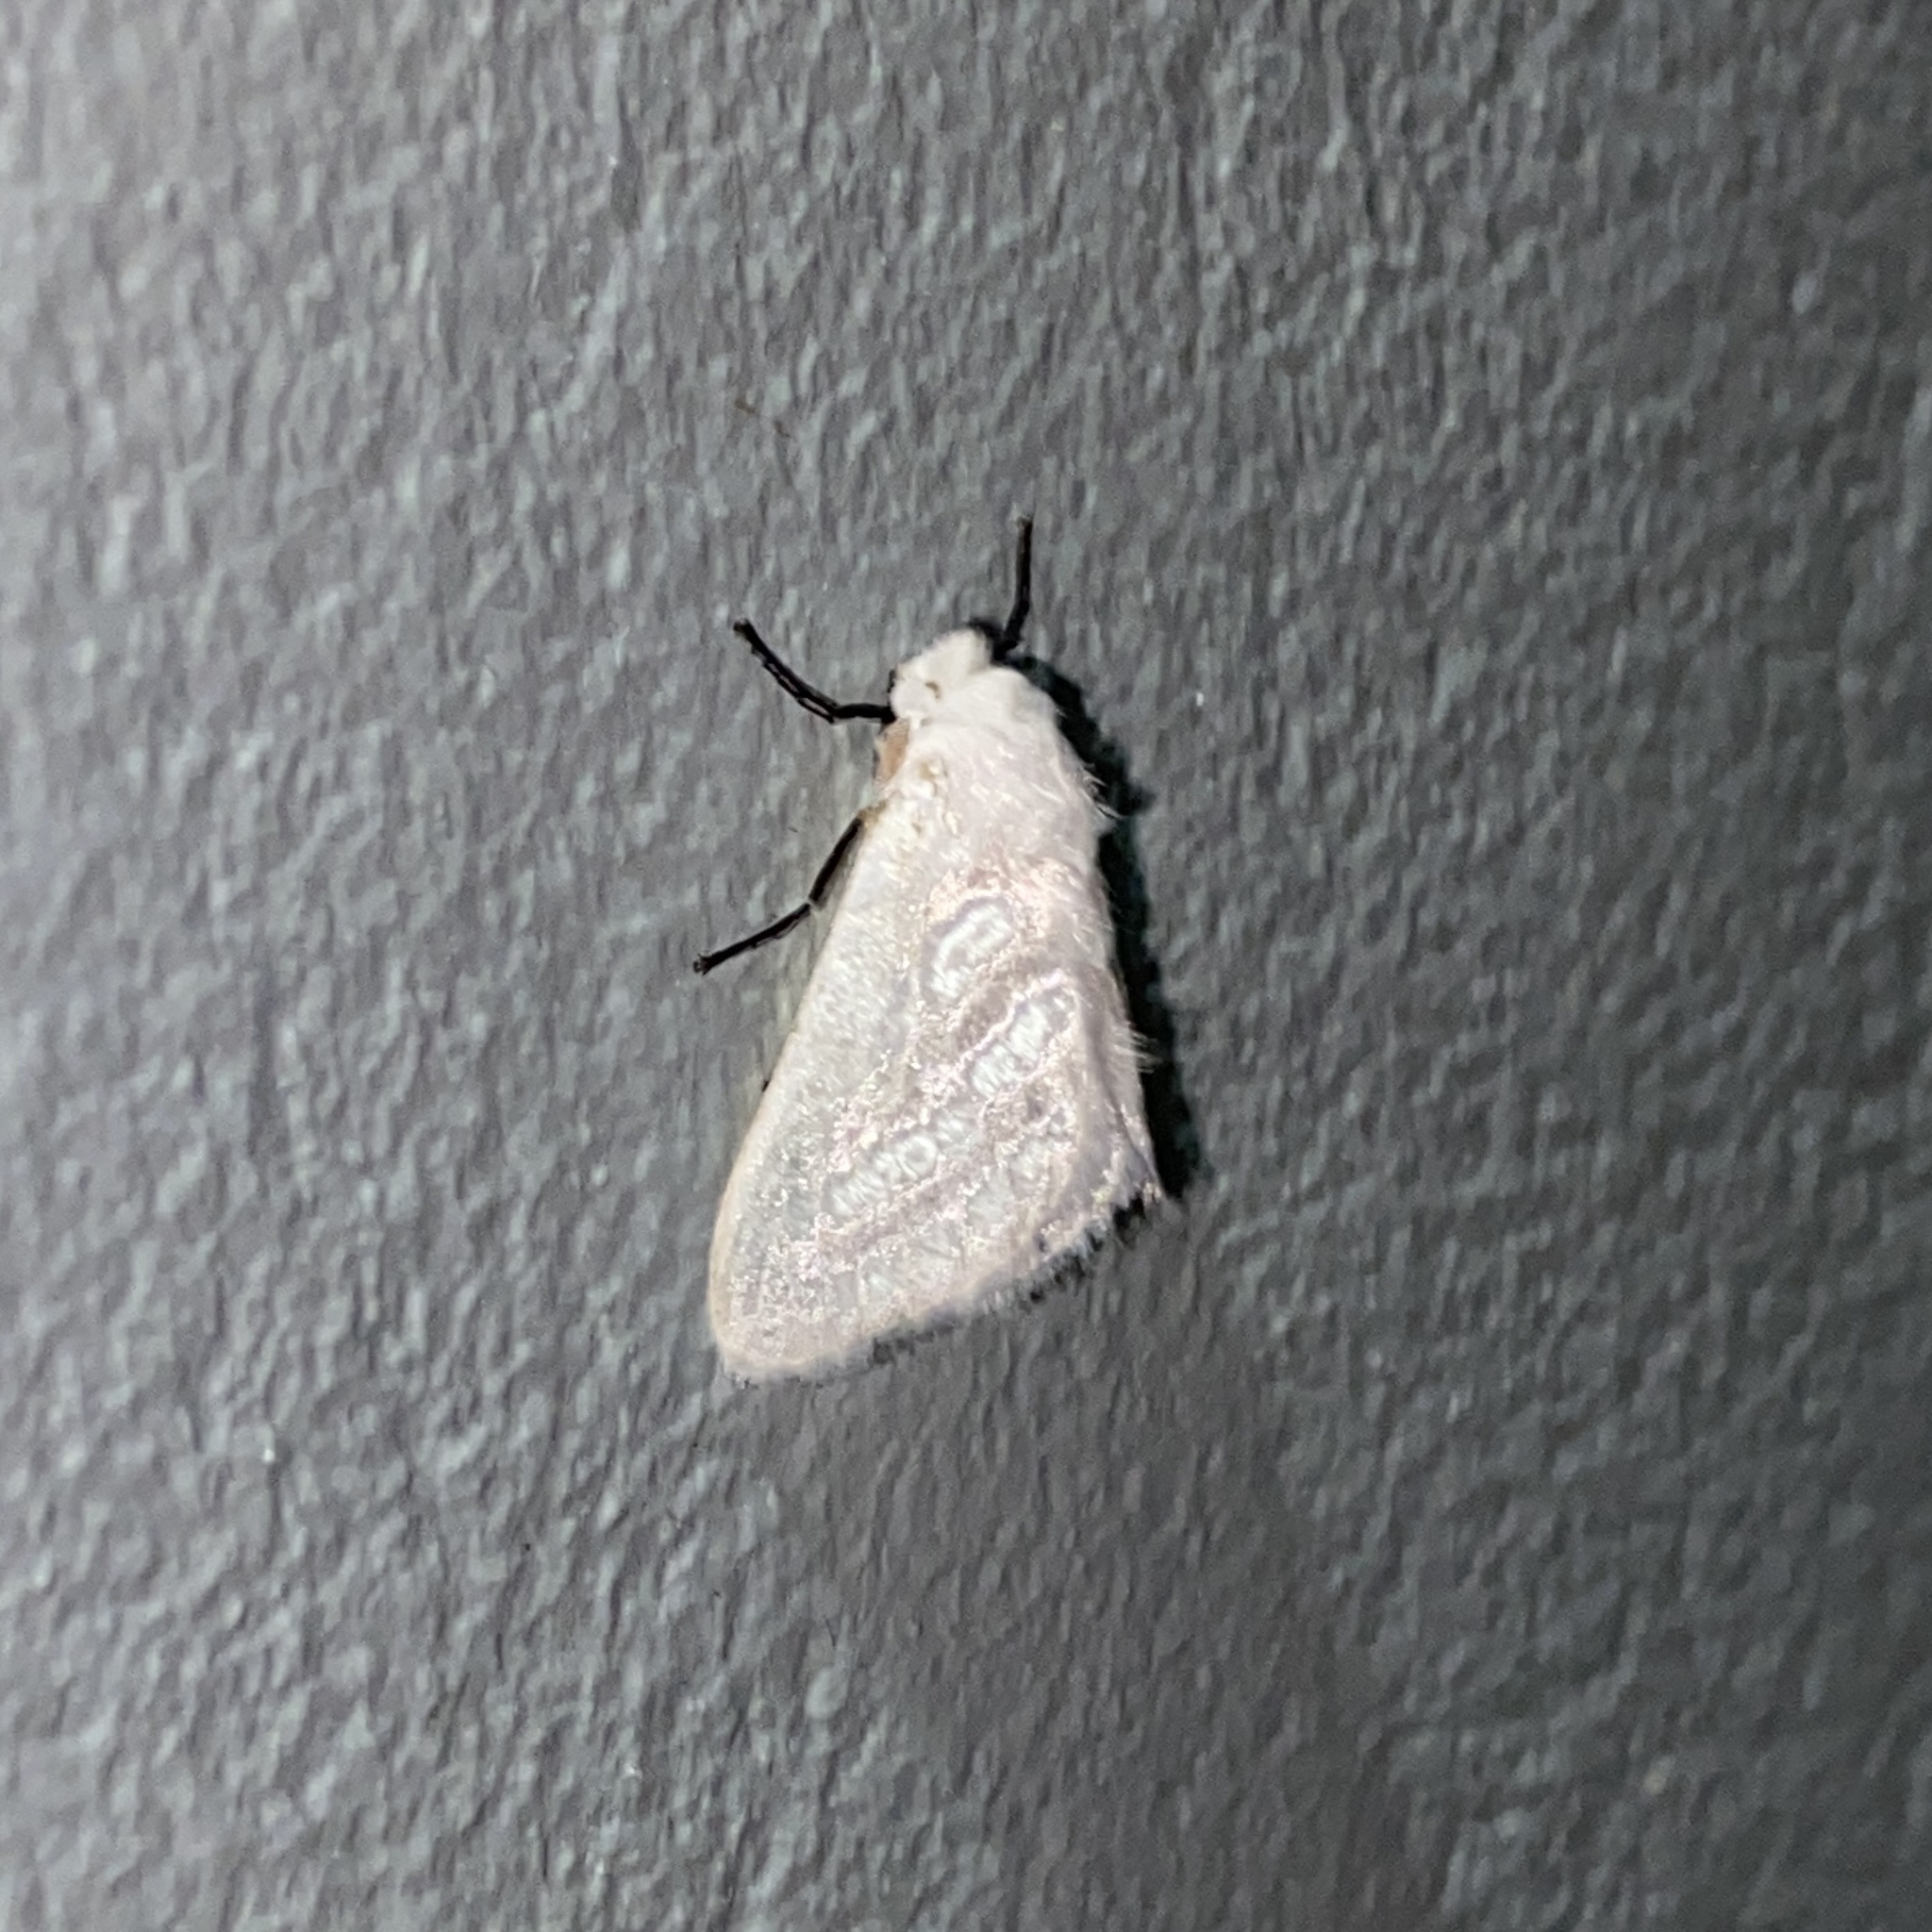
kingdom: Animalia
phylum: Arthropoda
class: Insecta
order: Lepidoptera
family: Megalopygidae
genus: Macara
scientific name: Macara nigripes
